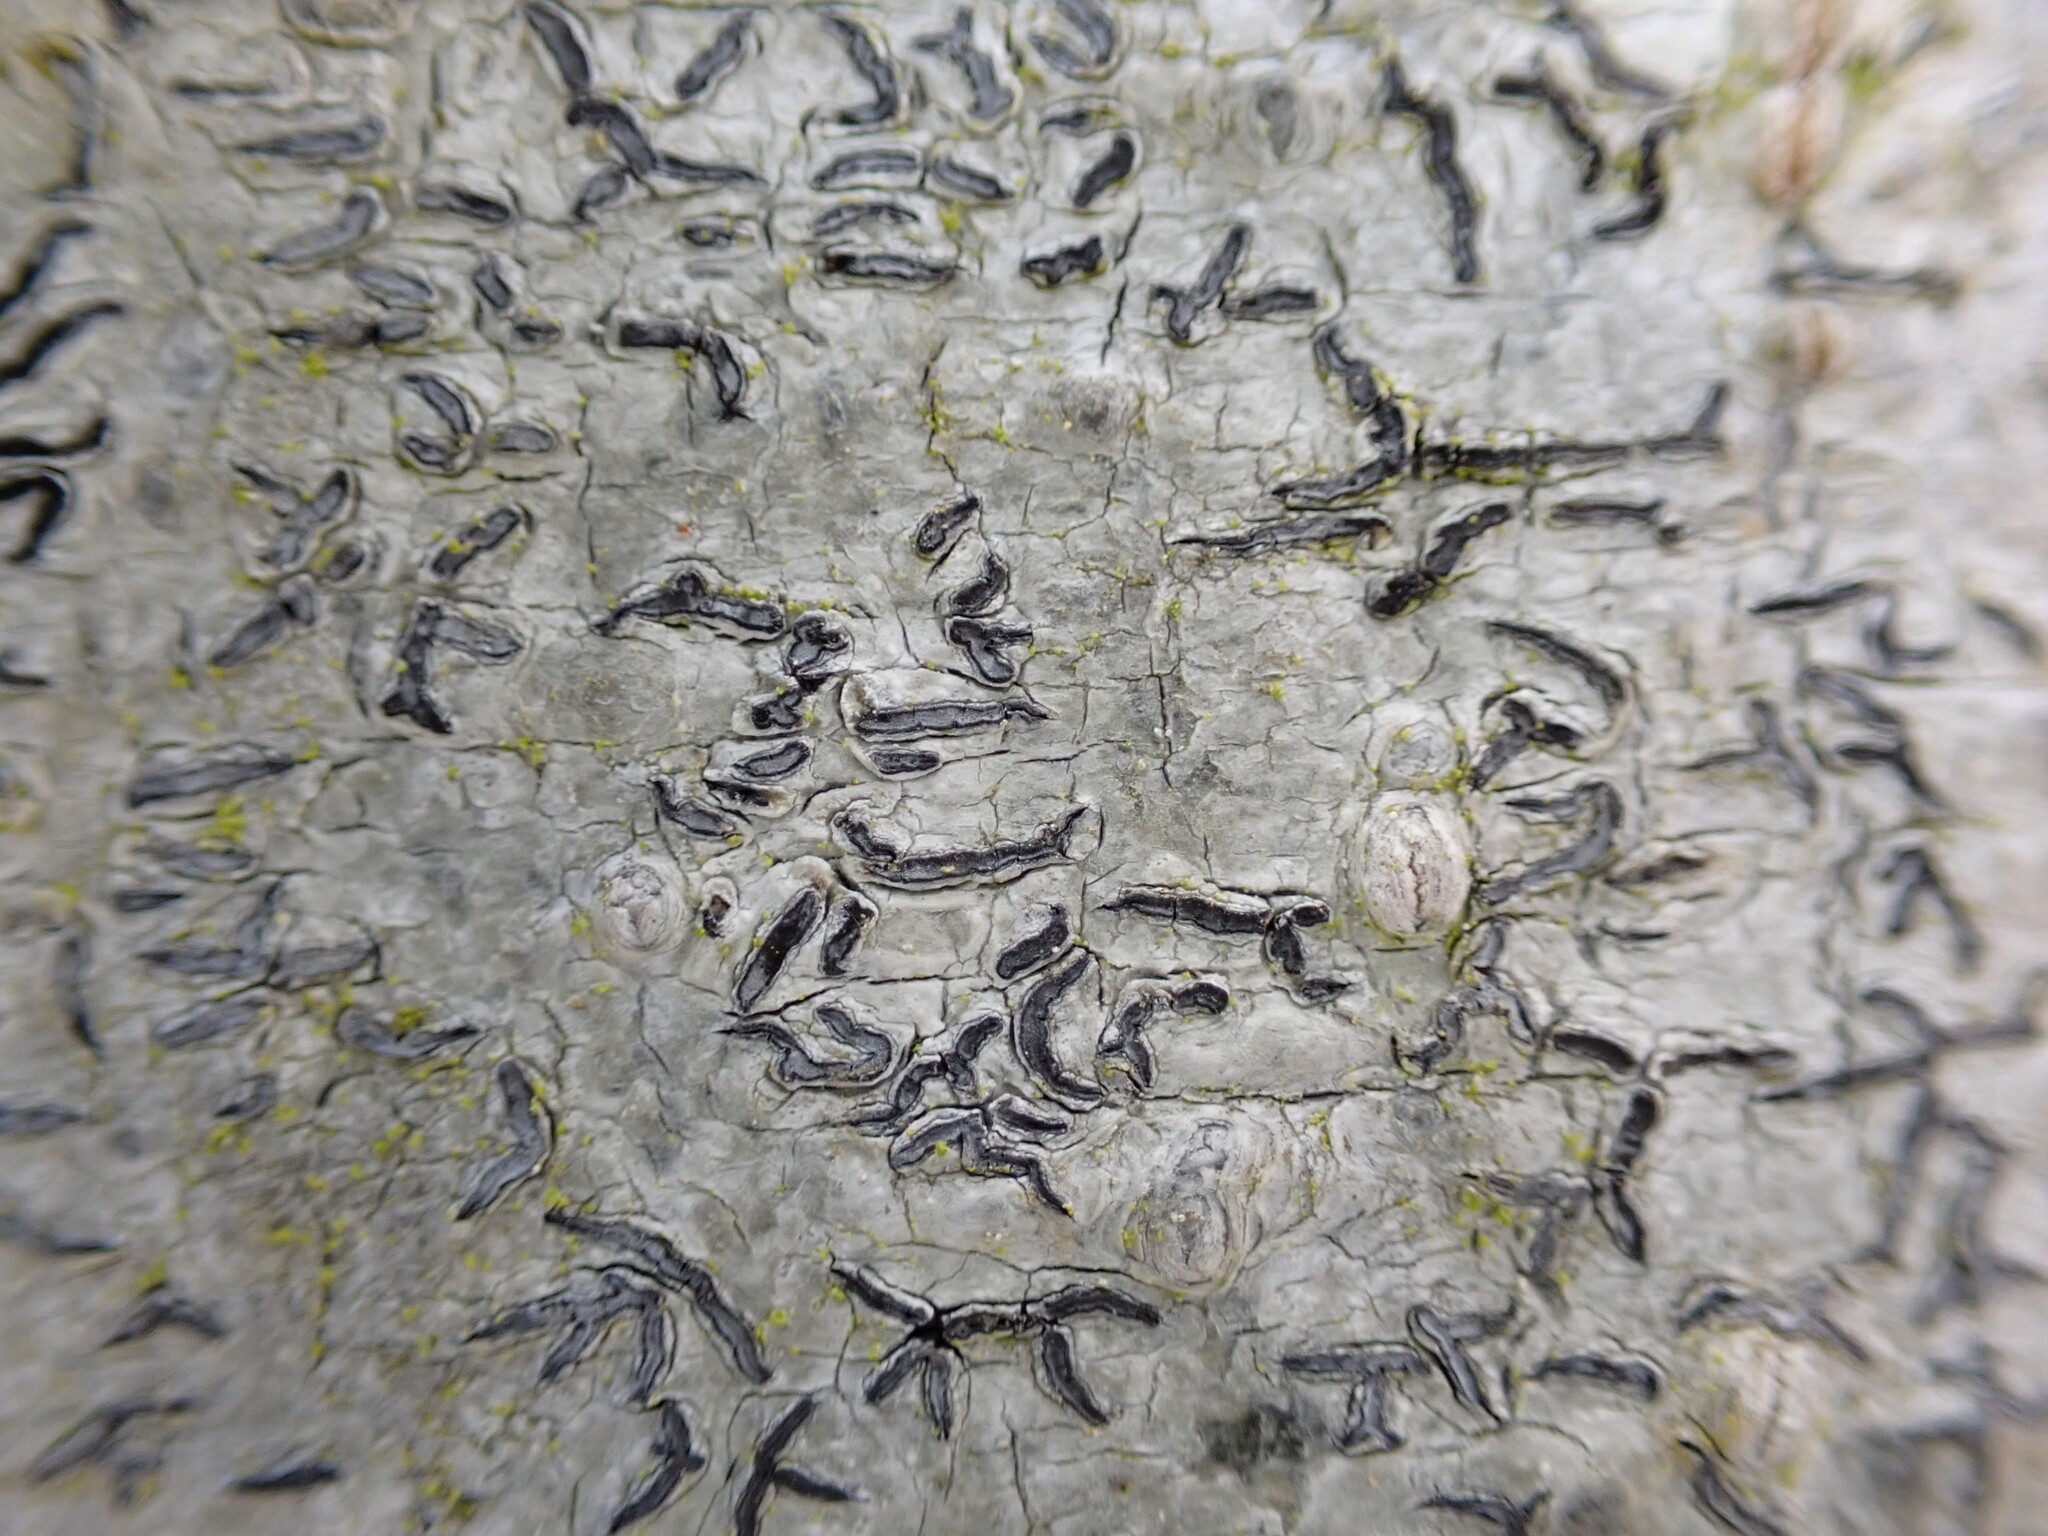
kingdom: Fungi
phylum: Ascomycota
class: Lecanoromycetes
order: Ostropales
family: Graphidaceae
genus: Graphis
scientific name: Graphis scripta
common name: Script lichen
